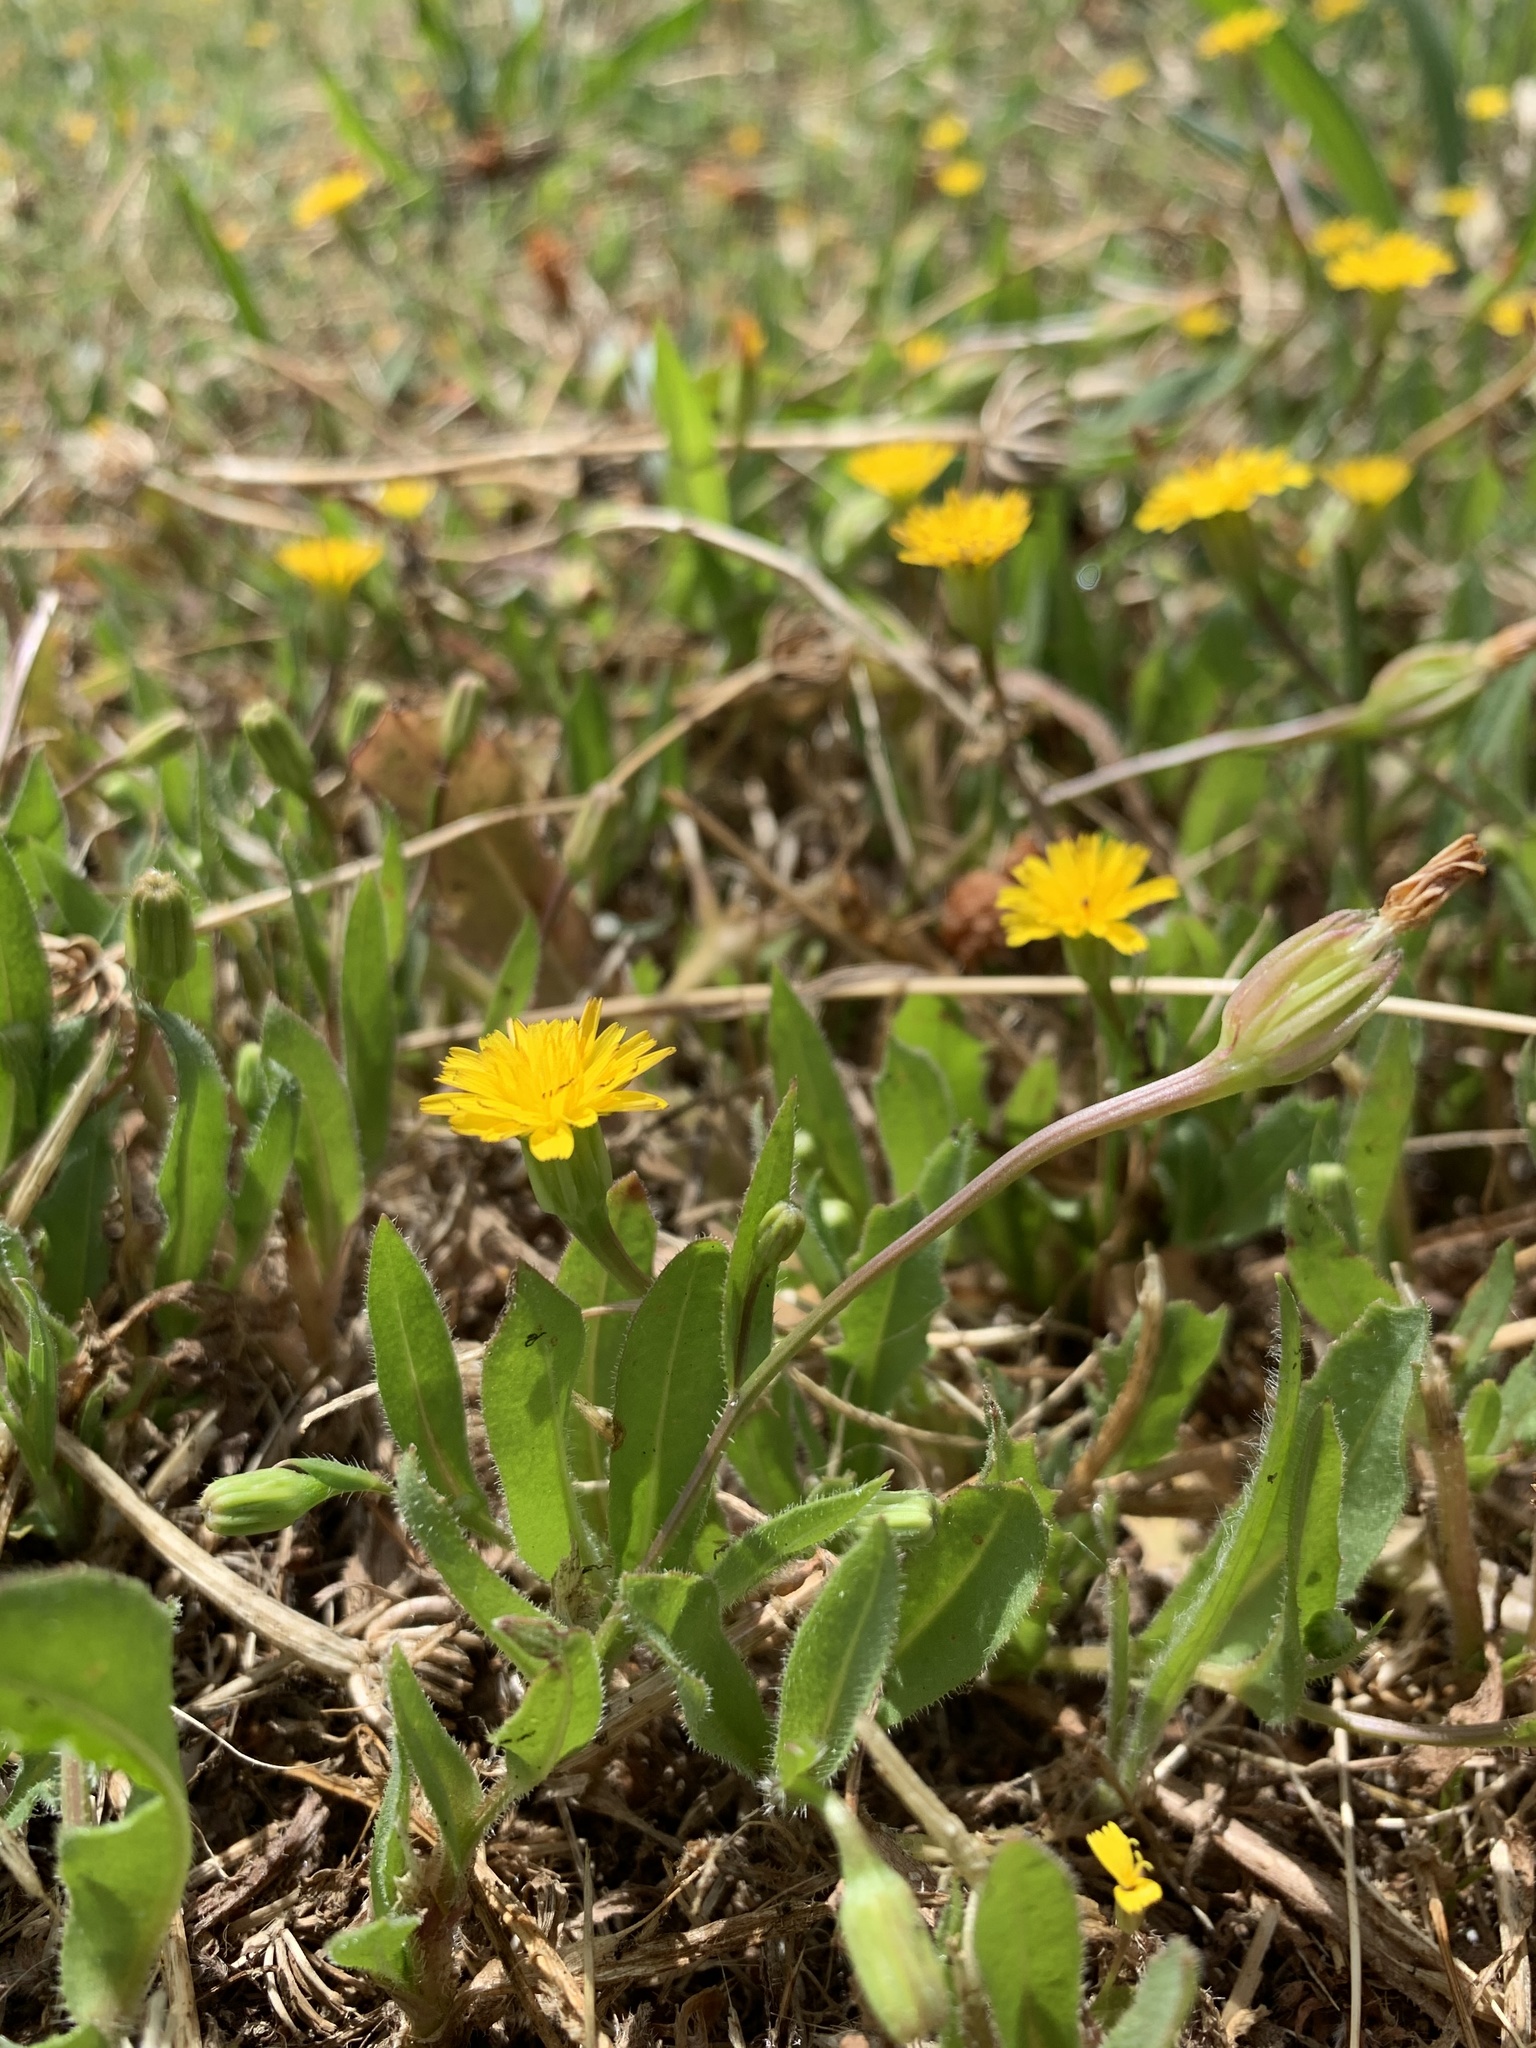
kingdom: Plantae
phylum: Tracheophyta
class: Magnoliopsida
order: Asterales
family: Asteraceae
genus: Hedypnois
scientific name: Hedypnois rhagadioloides
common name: Cretan weed
